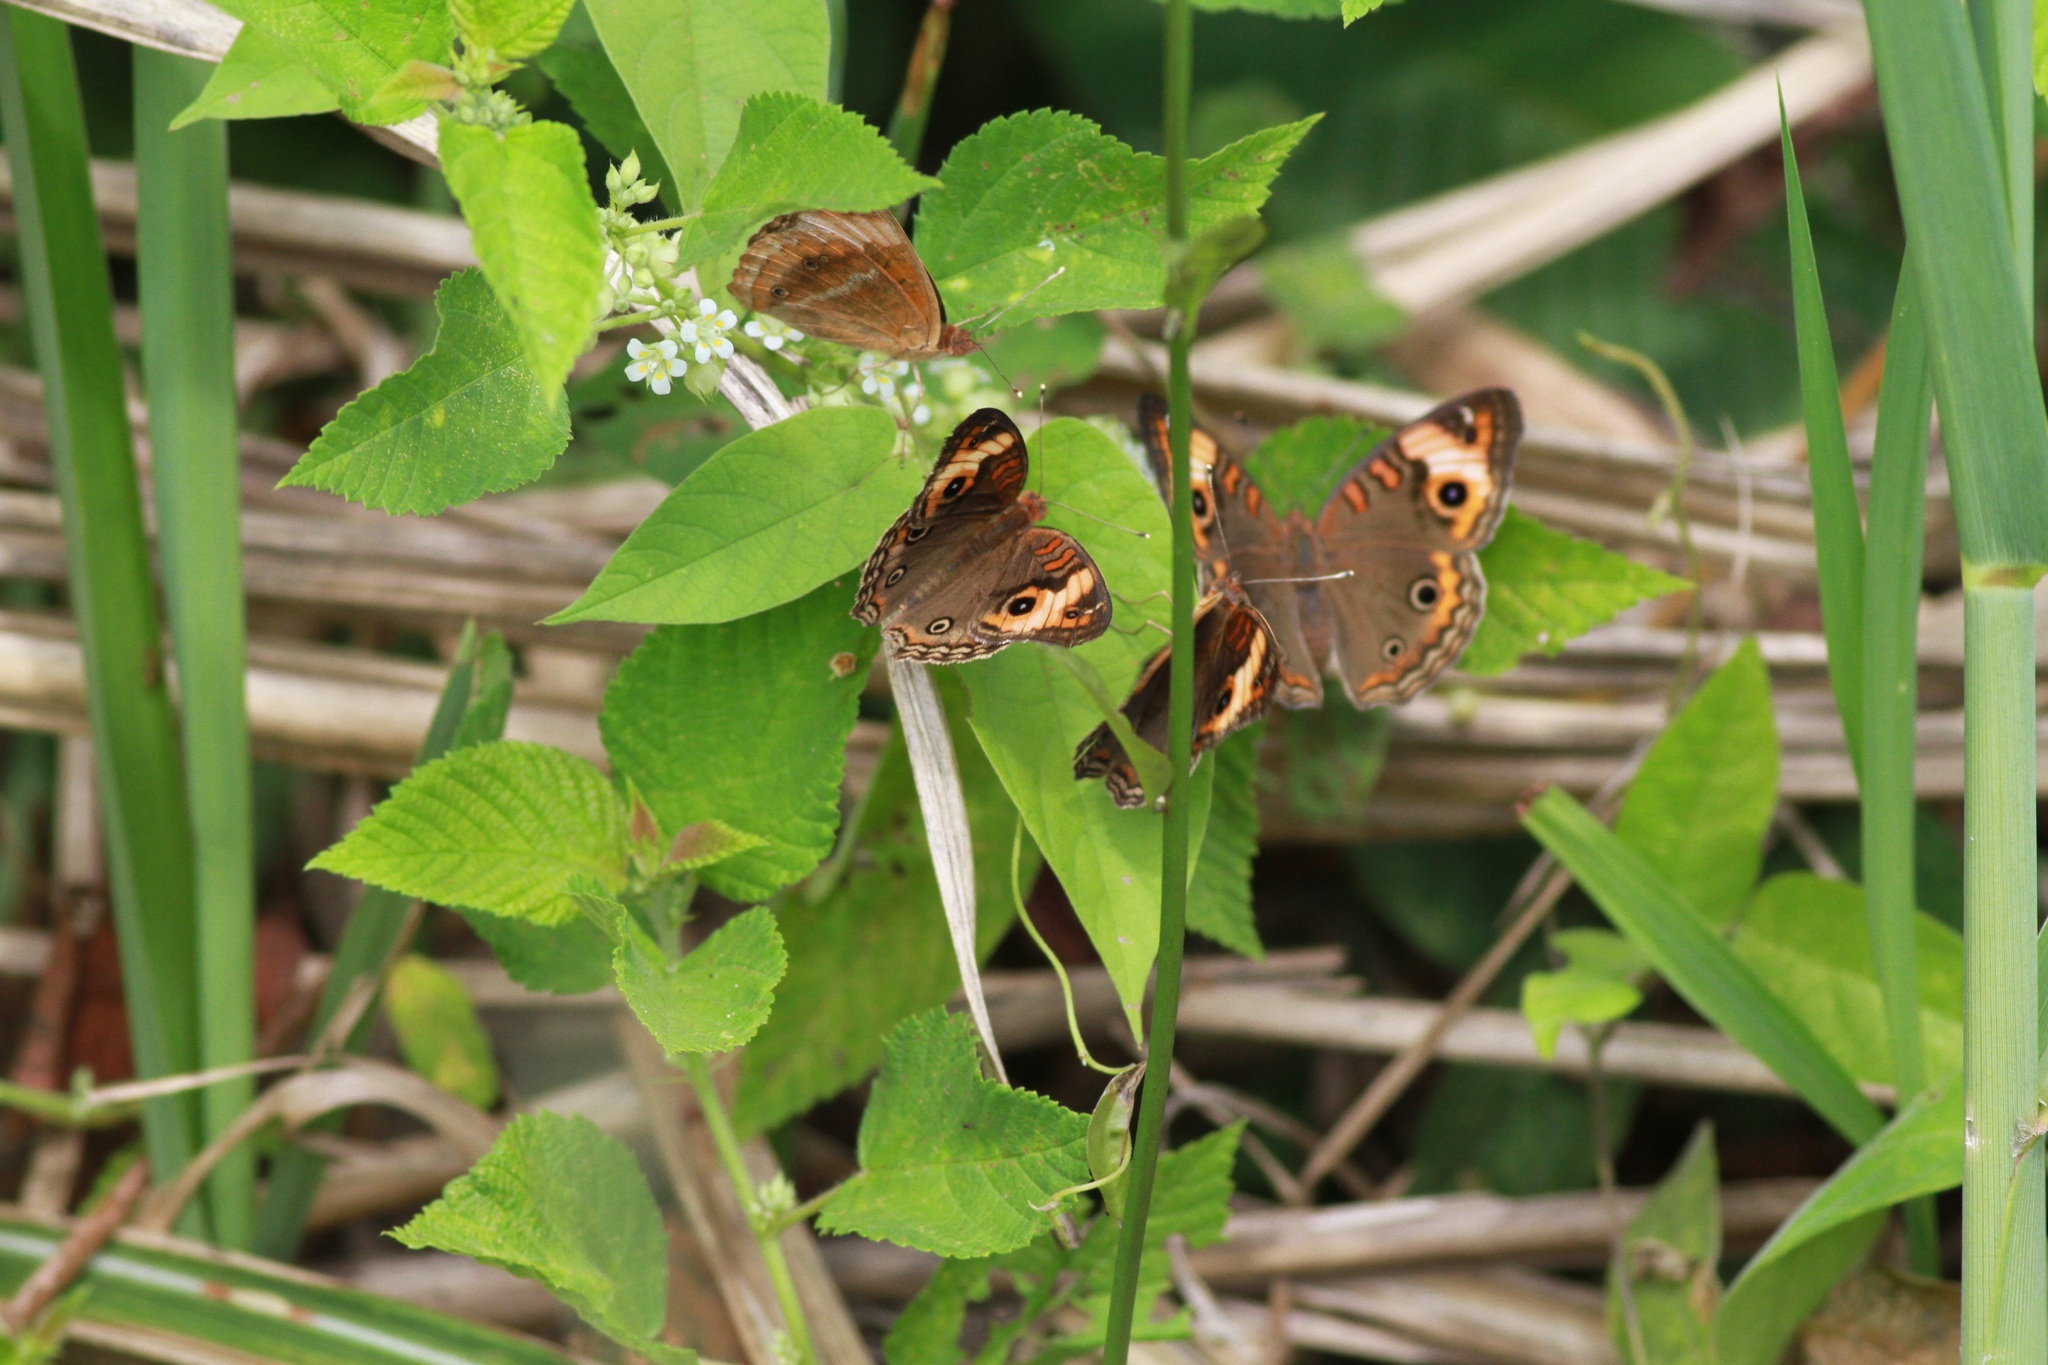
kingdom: Animalia
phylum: Arthropoda
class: Insecta
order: Lepidoptera
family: Nymphalidae
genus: Junonia
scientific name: Junonia lavinia
